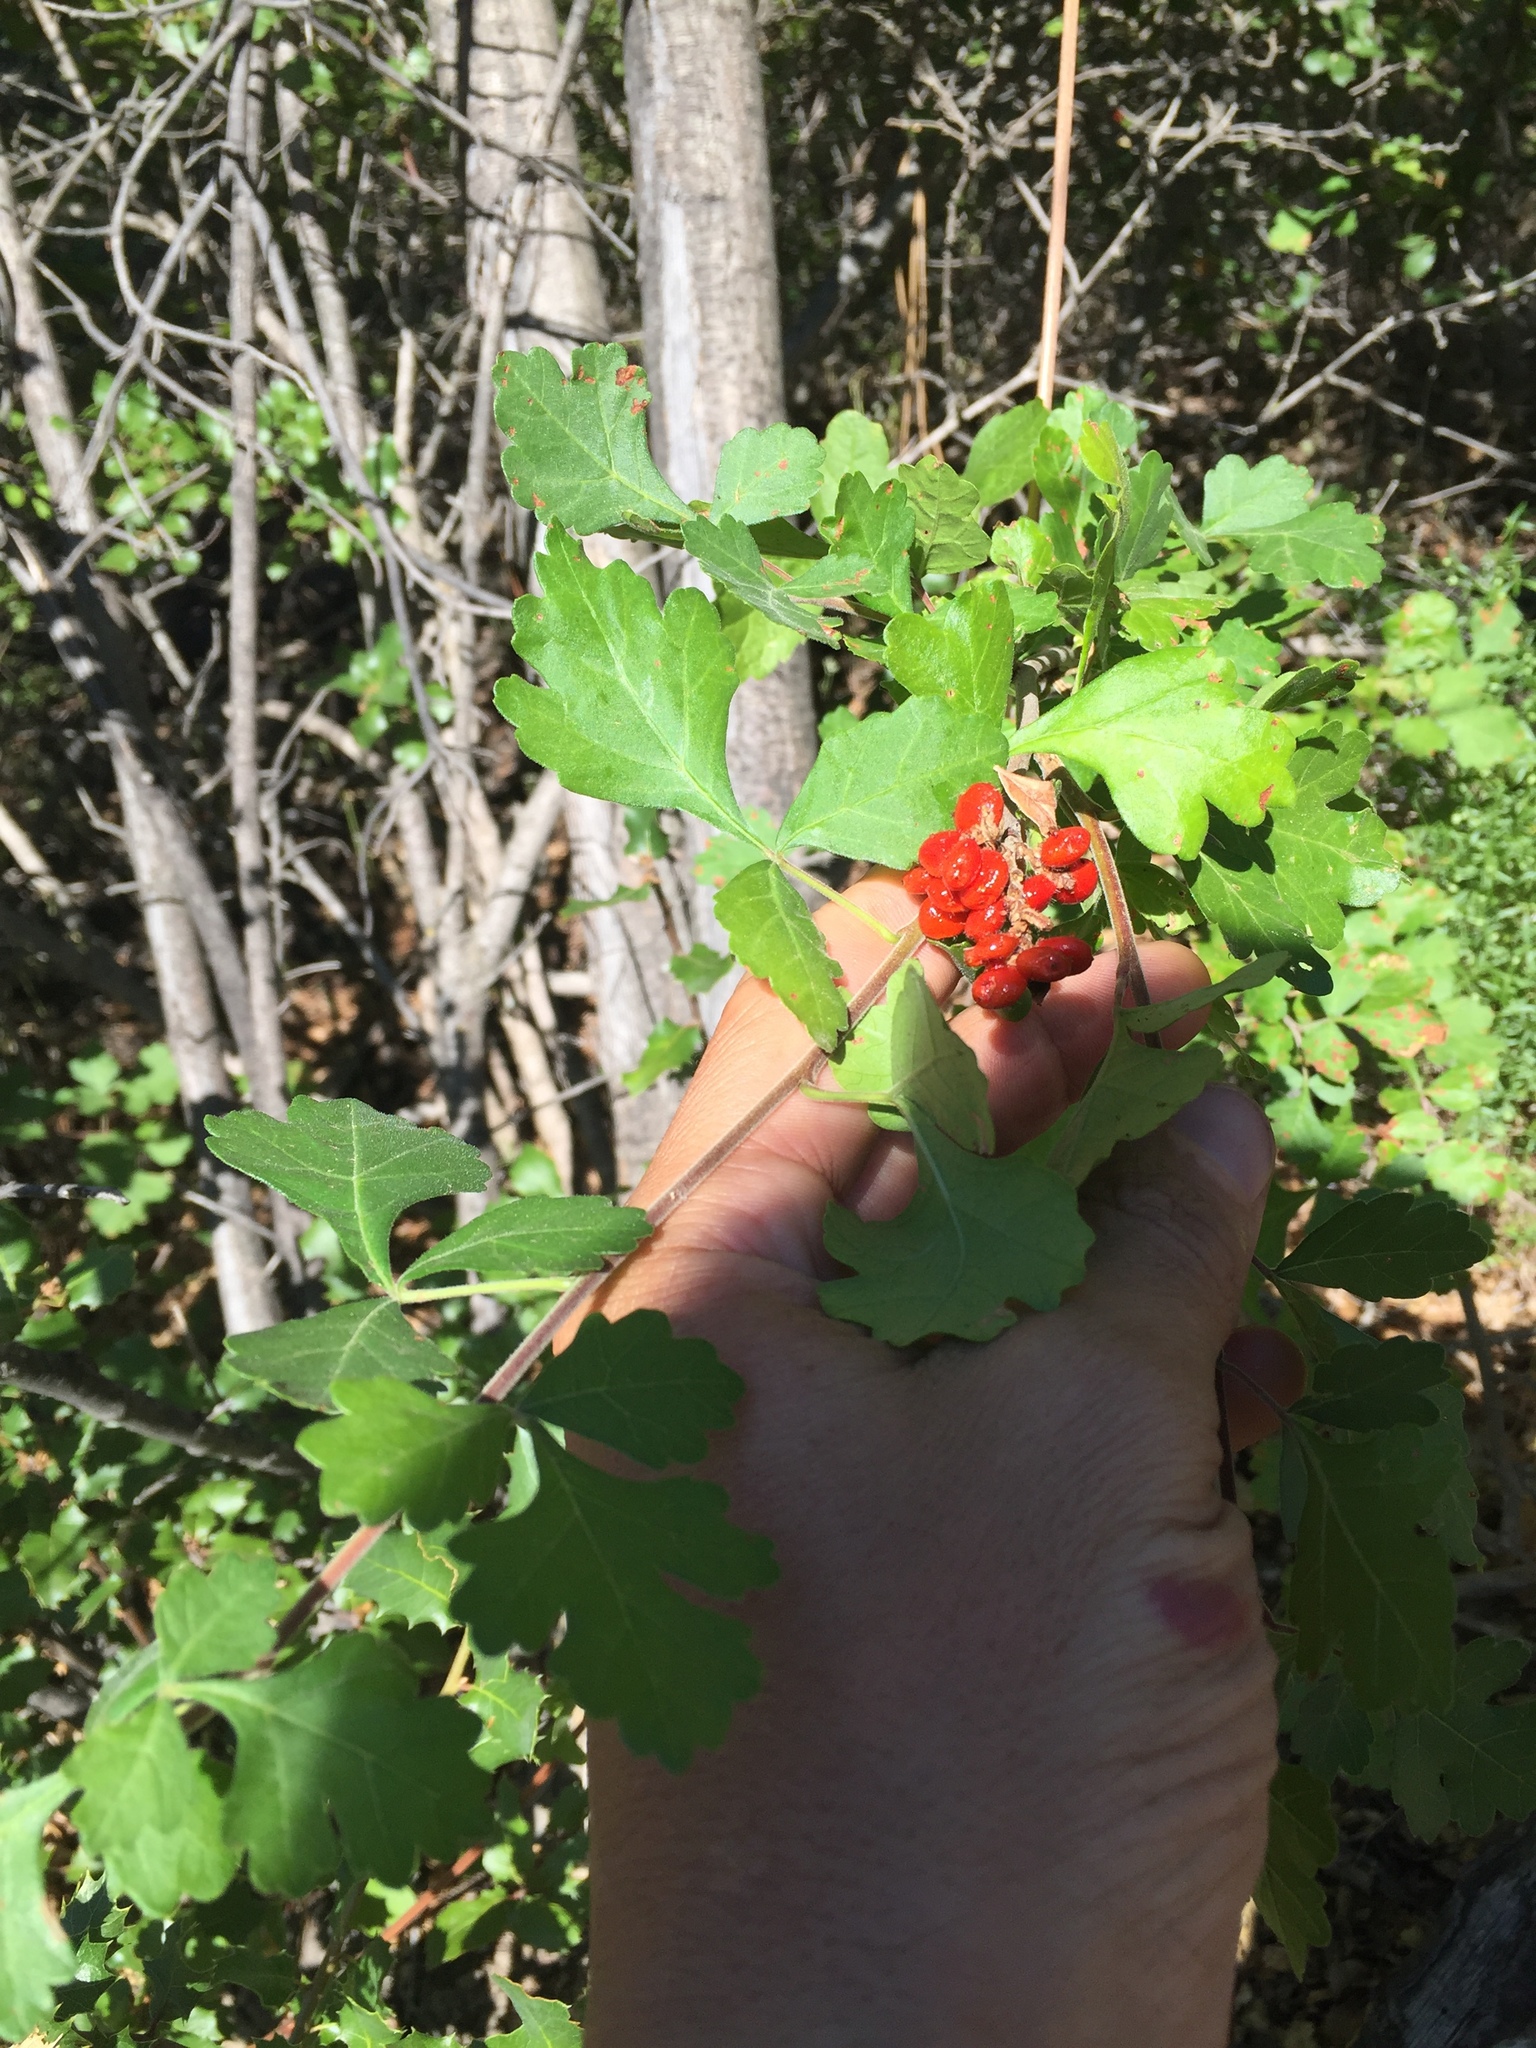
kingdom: Plantae
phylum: Tracheophyta
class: Magnoliopsida
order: Sapindales
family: Anacardiaceae
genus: Rhus
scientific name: Rhus aromatica
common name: Aromatic sumac
